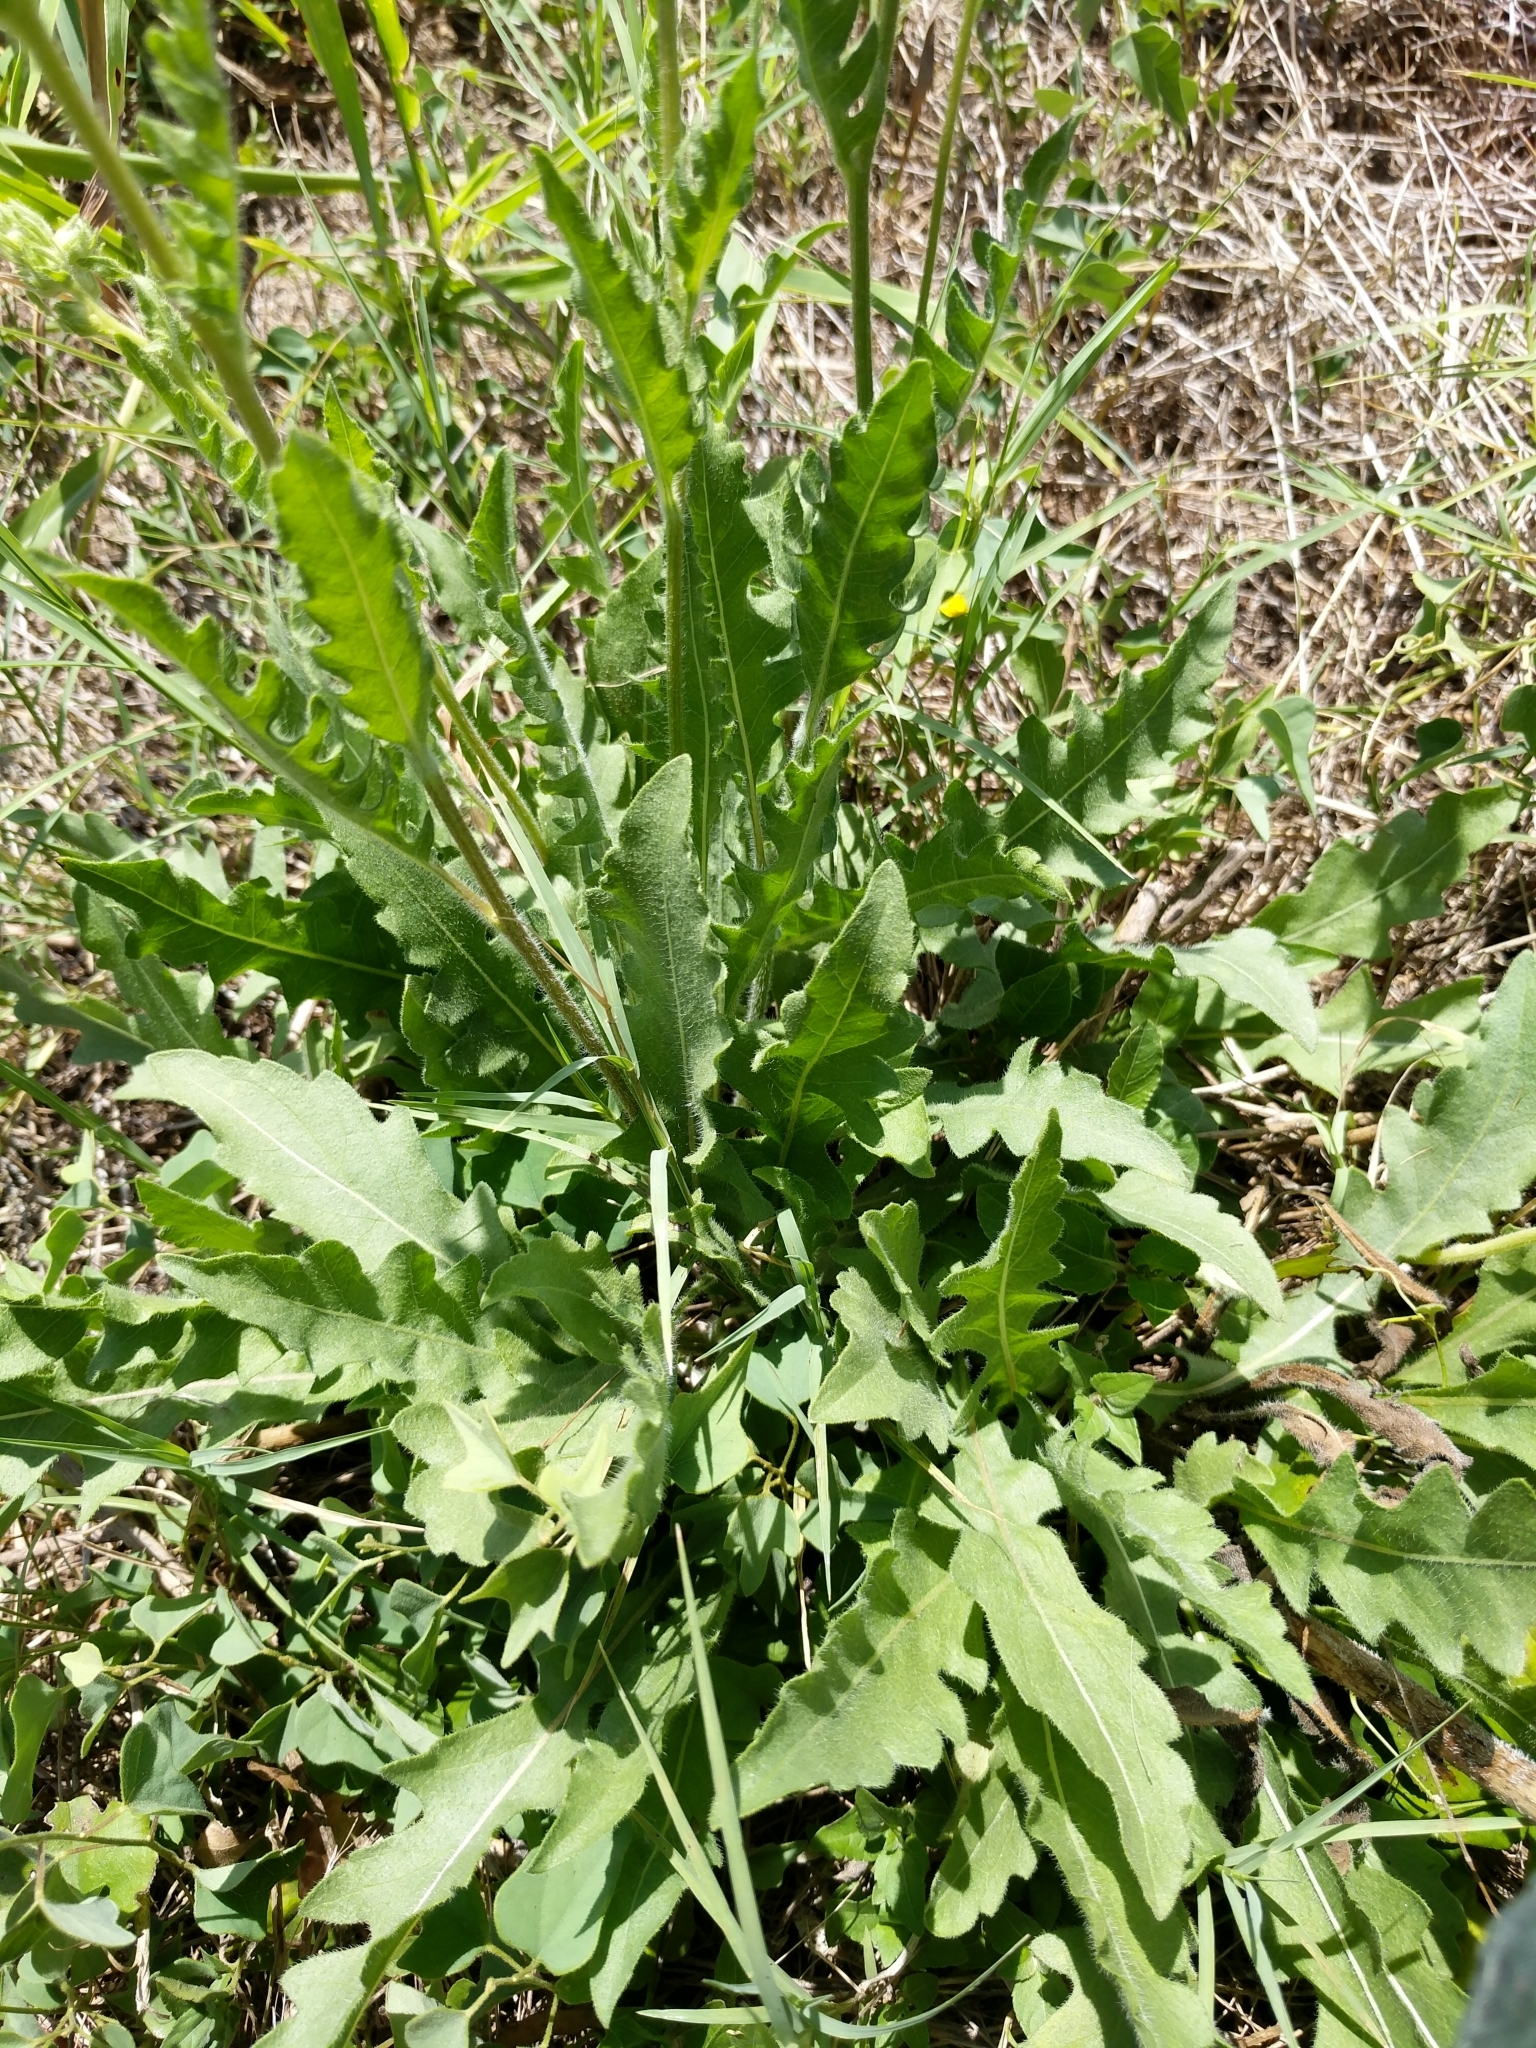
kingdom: Plantae
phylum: Tracheophyta
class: Magnoliopsida
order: Asterales
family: Asteraceae
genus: Engelmannia
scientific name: Engelmannia peristenia
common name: Engelmann's daisy
